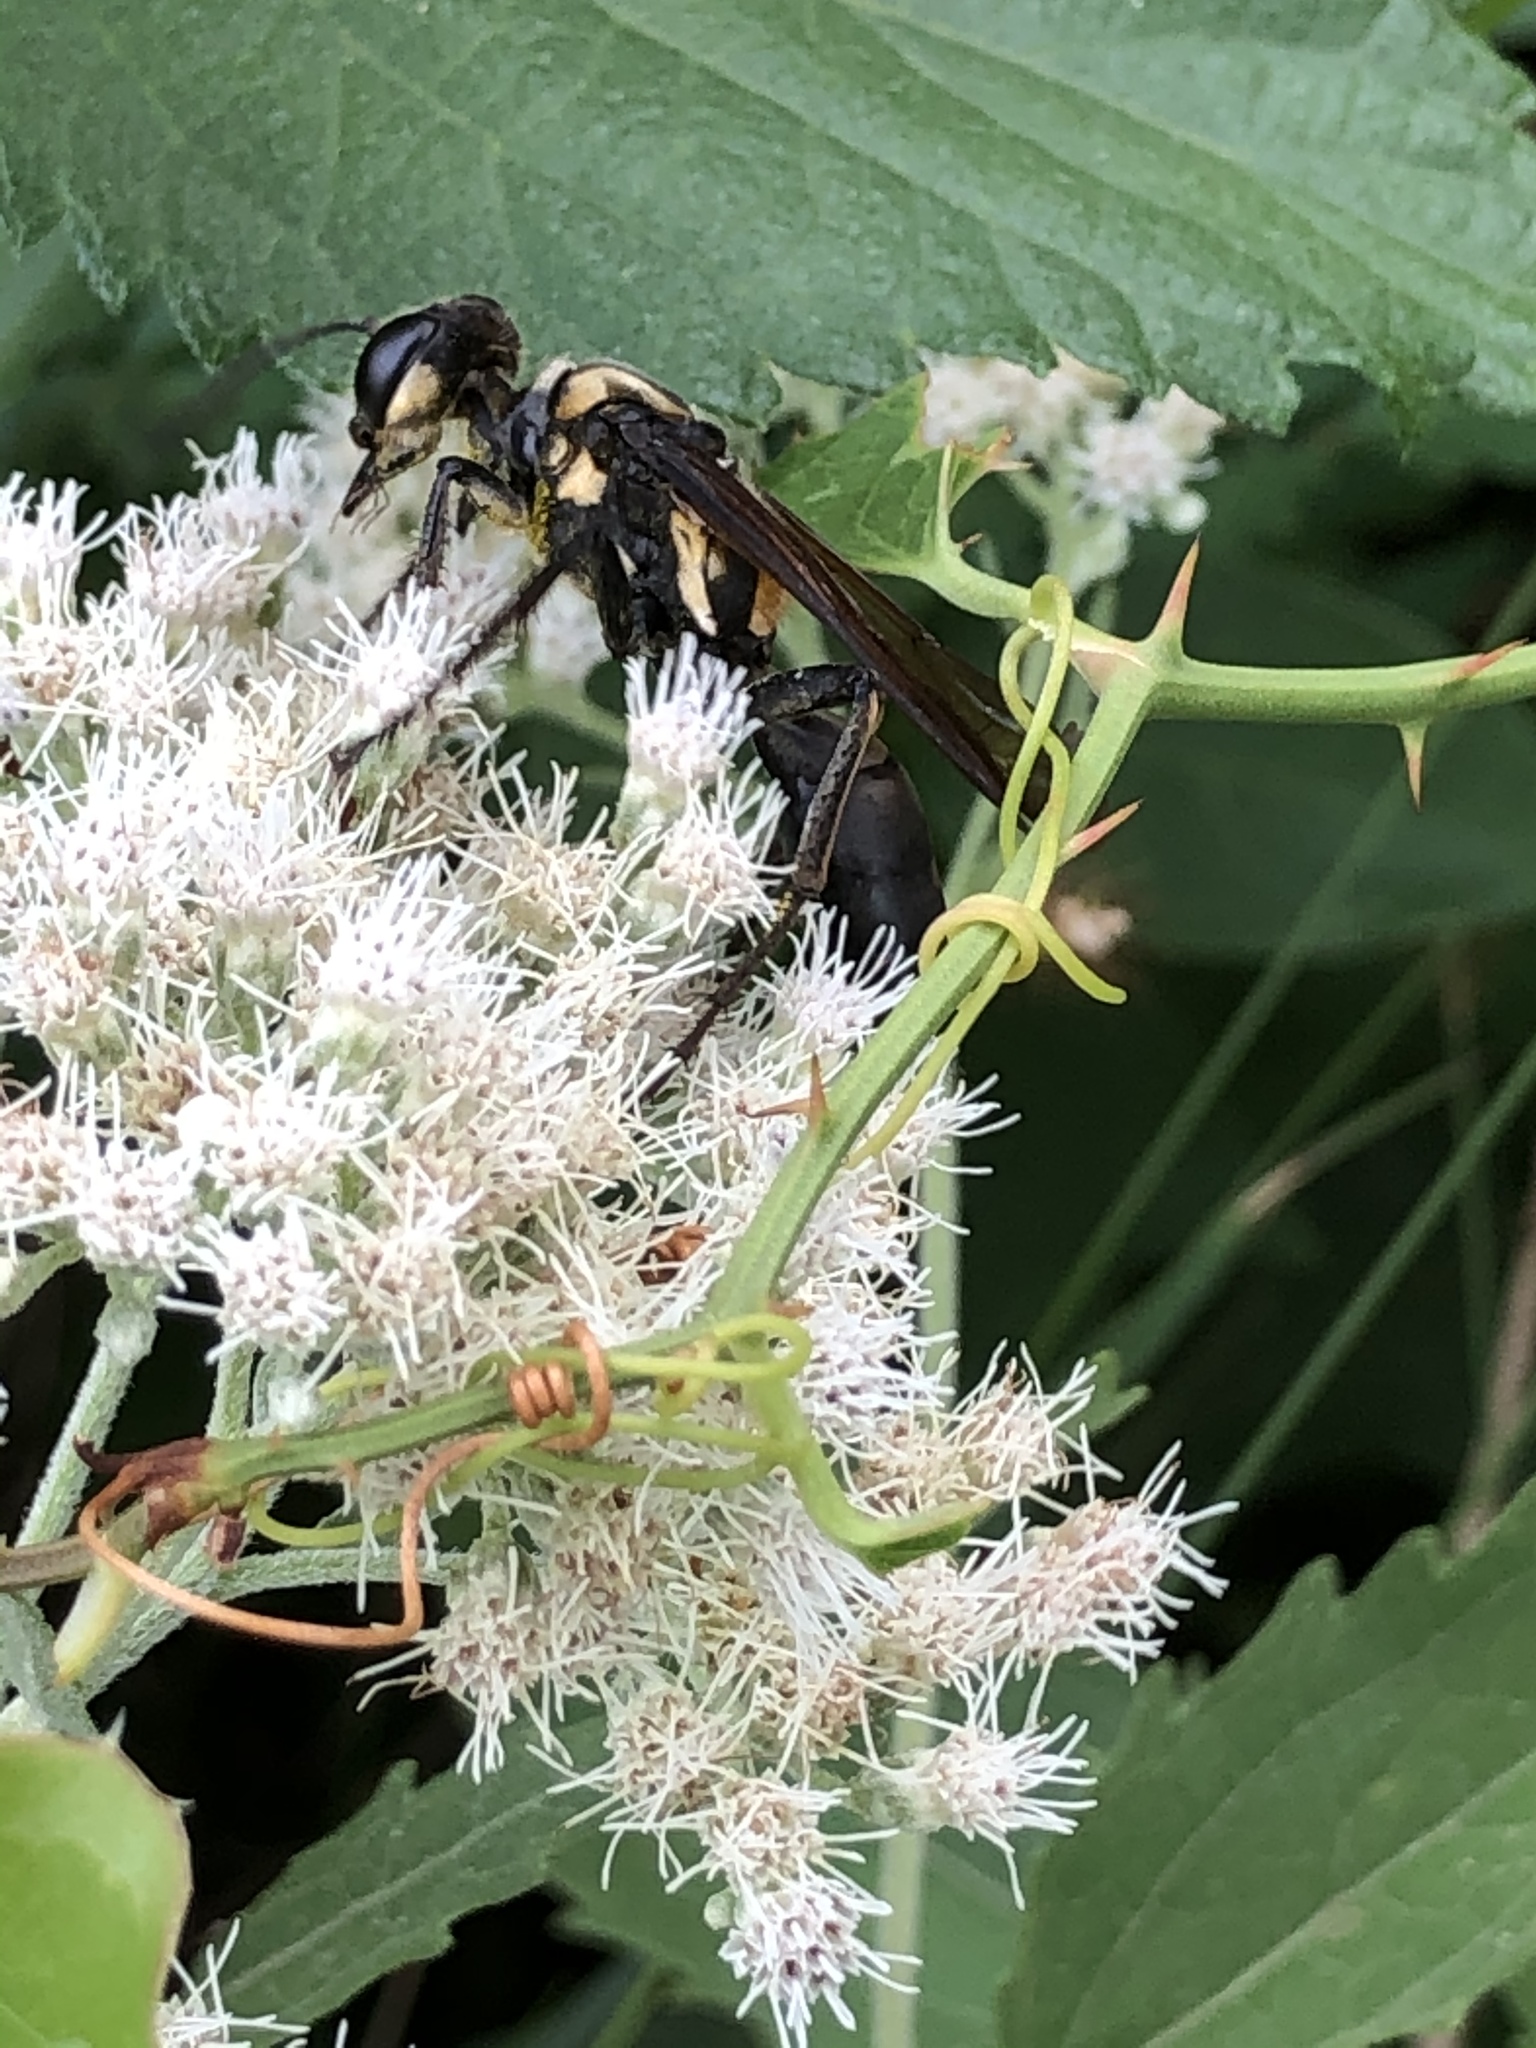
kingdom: Animalia
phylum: Arthropoda
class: Insecta
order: Hymenoptera
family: Sphecidae
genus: Sphex
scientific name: Sphex habenus
